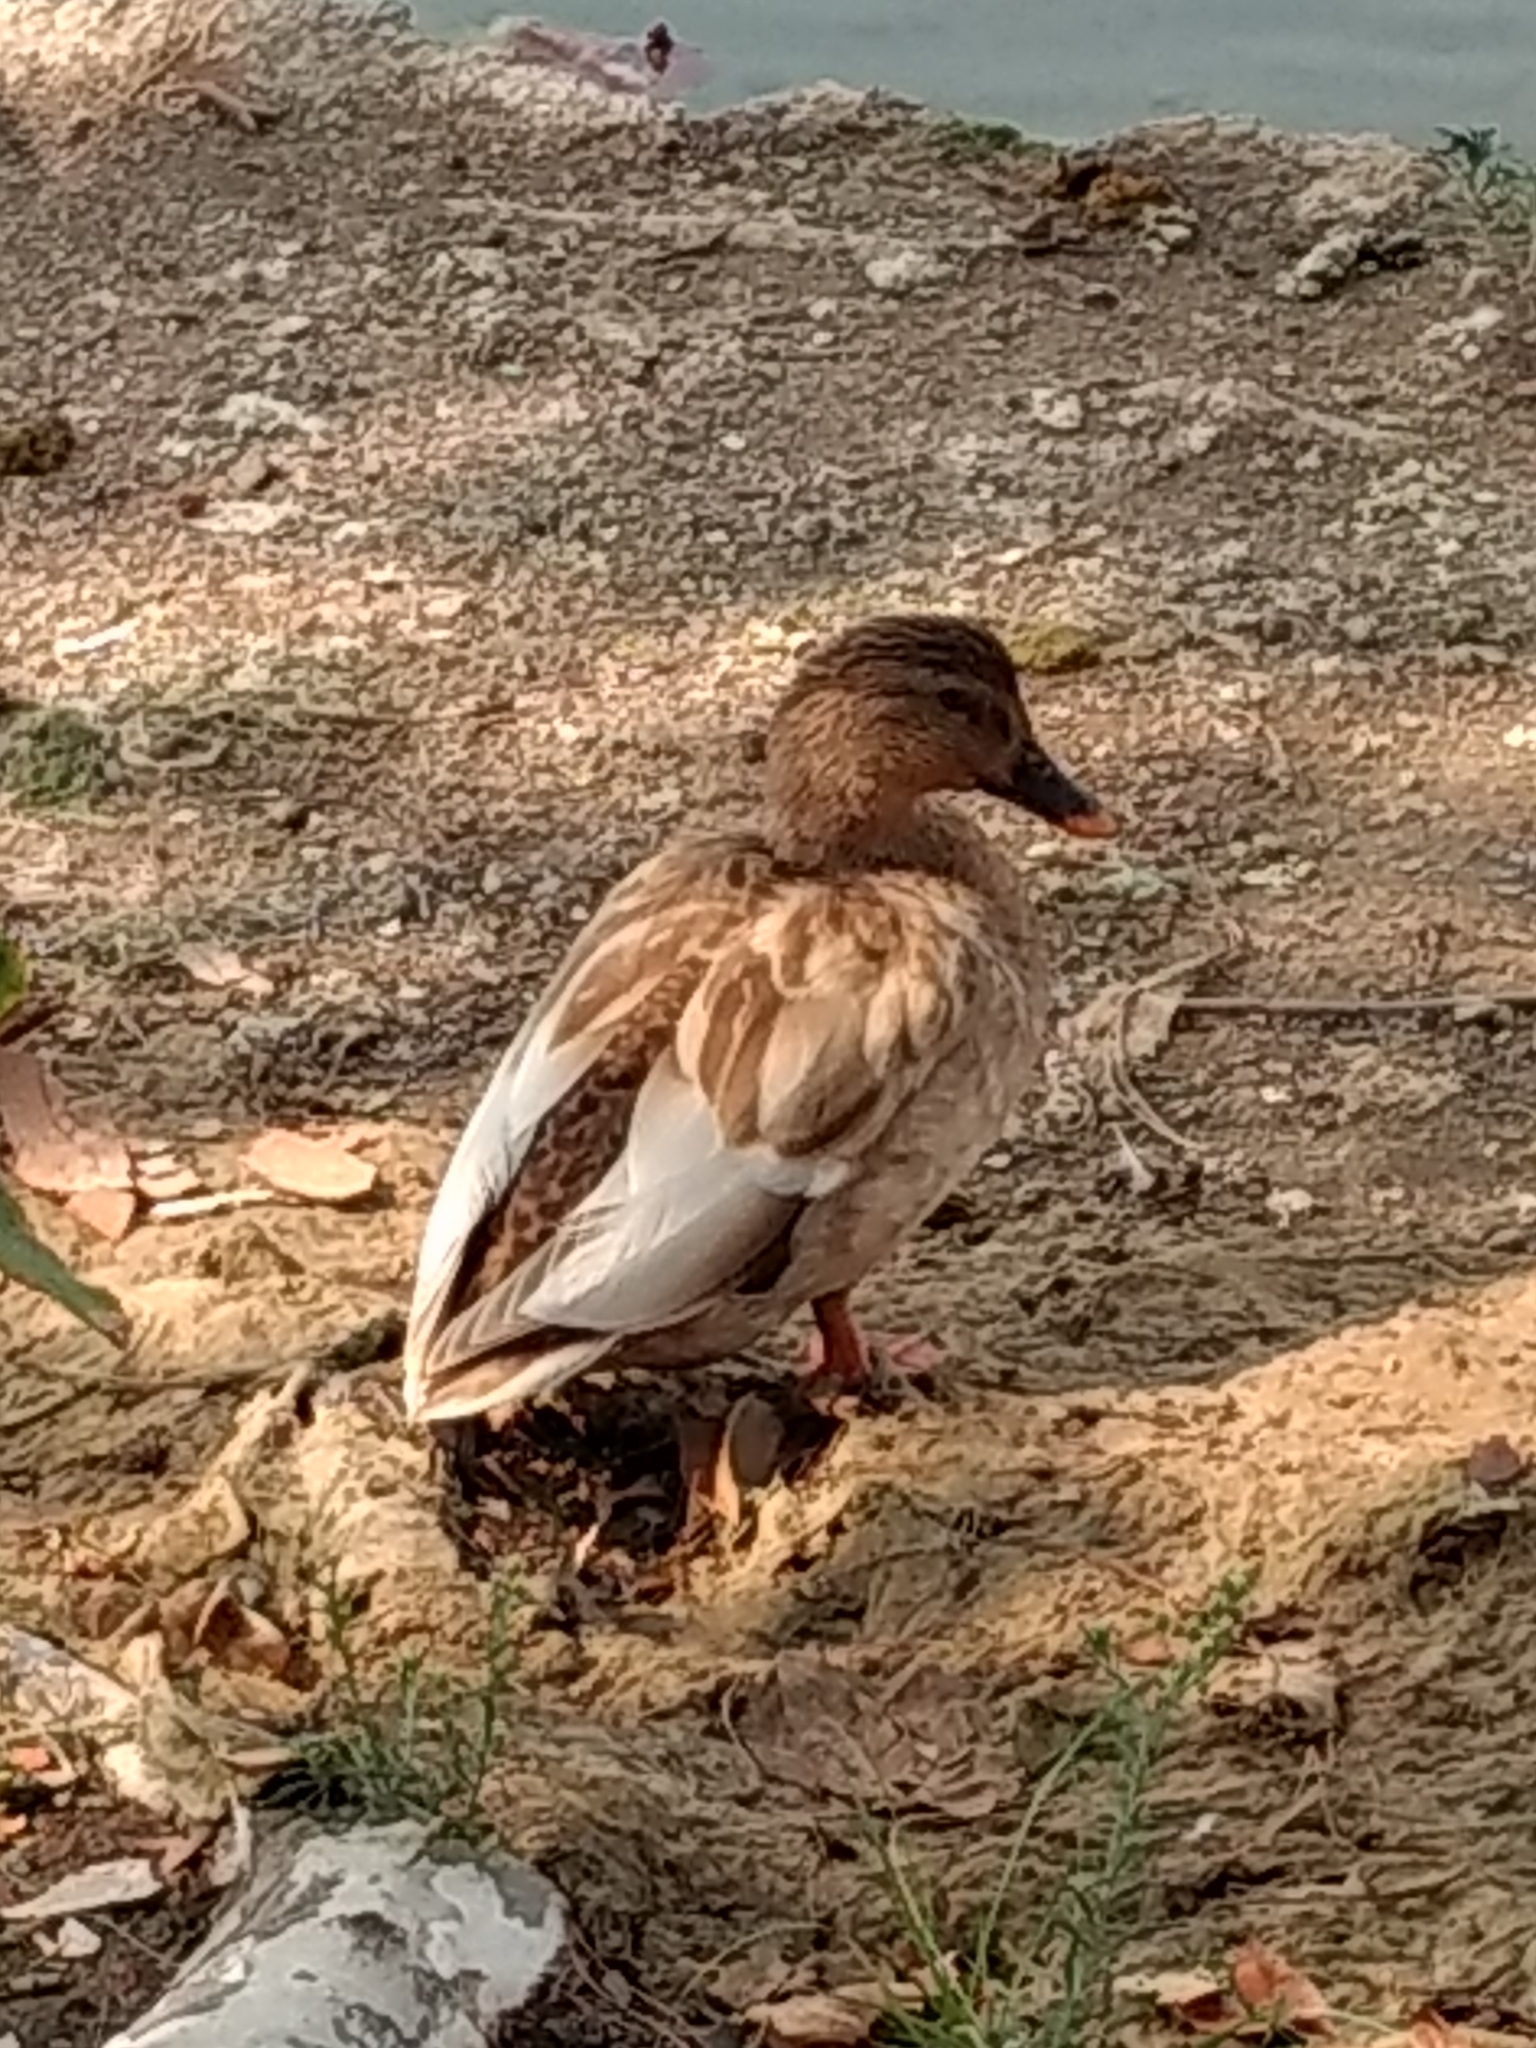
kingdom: Animalia
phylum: Chordata
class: Aves
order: Anseriformes
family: Anatidae
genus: Anas
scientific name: Anas platyrhynchos
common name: Mallard
